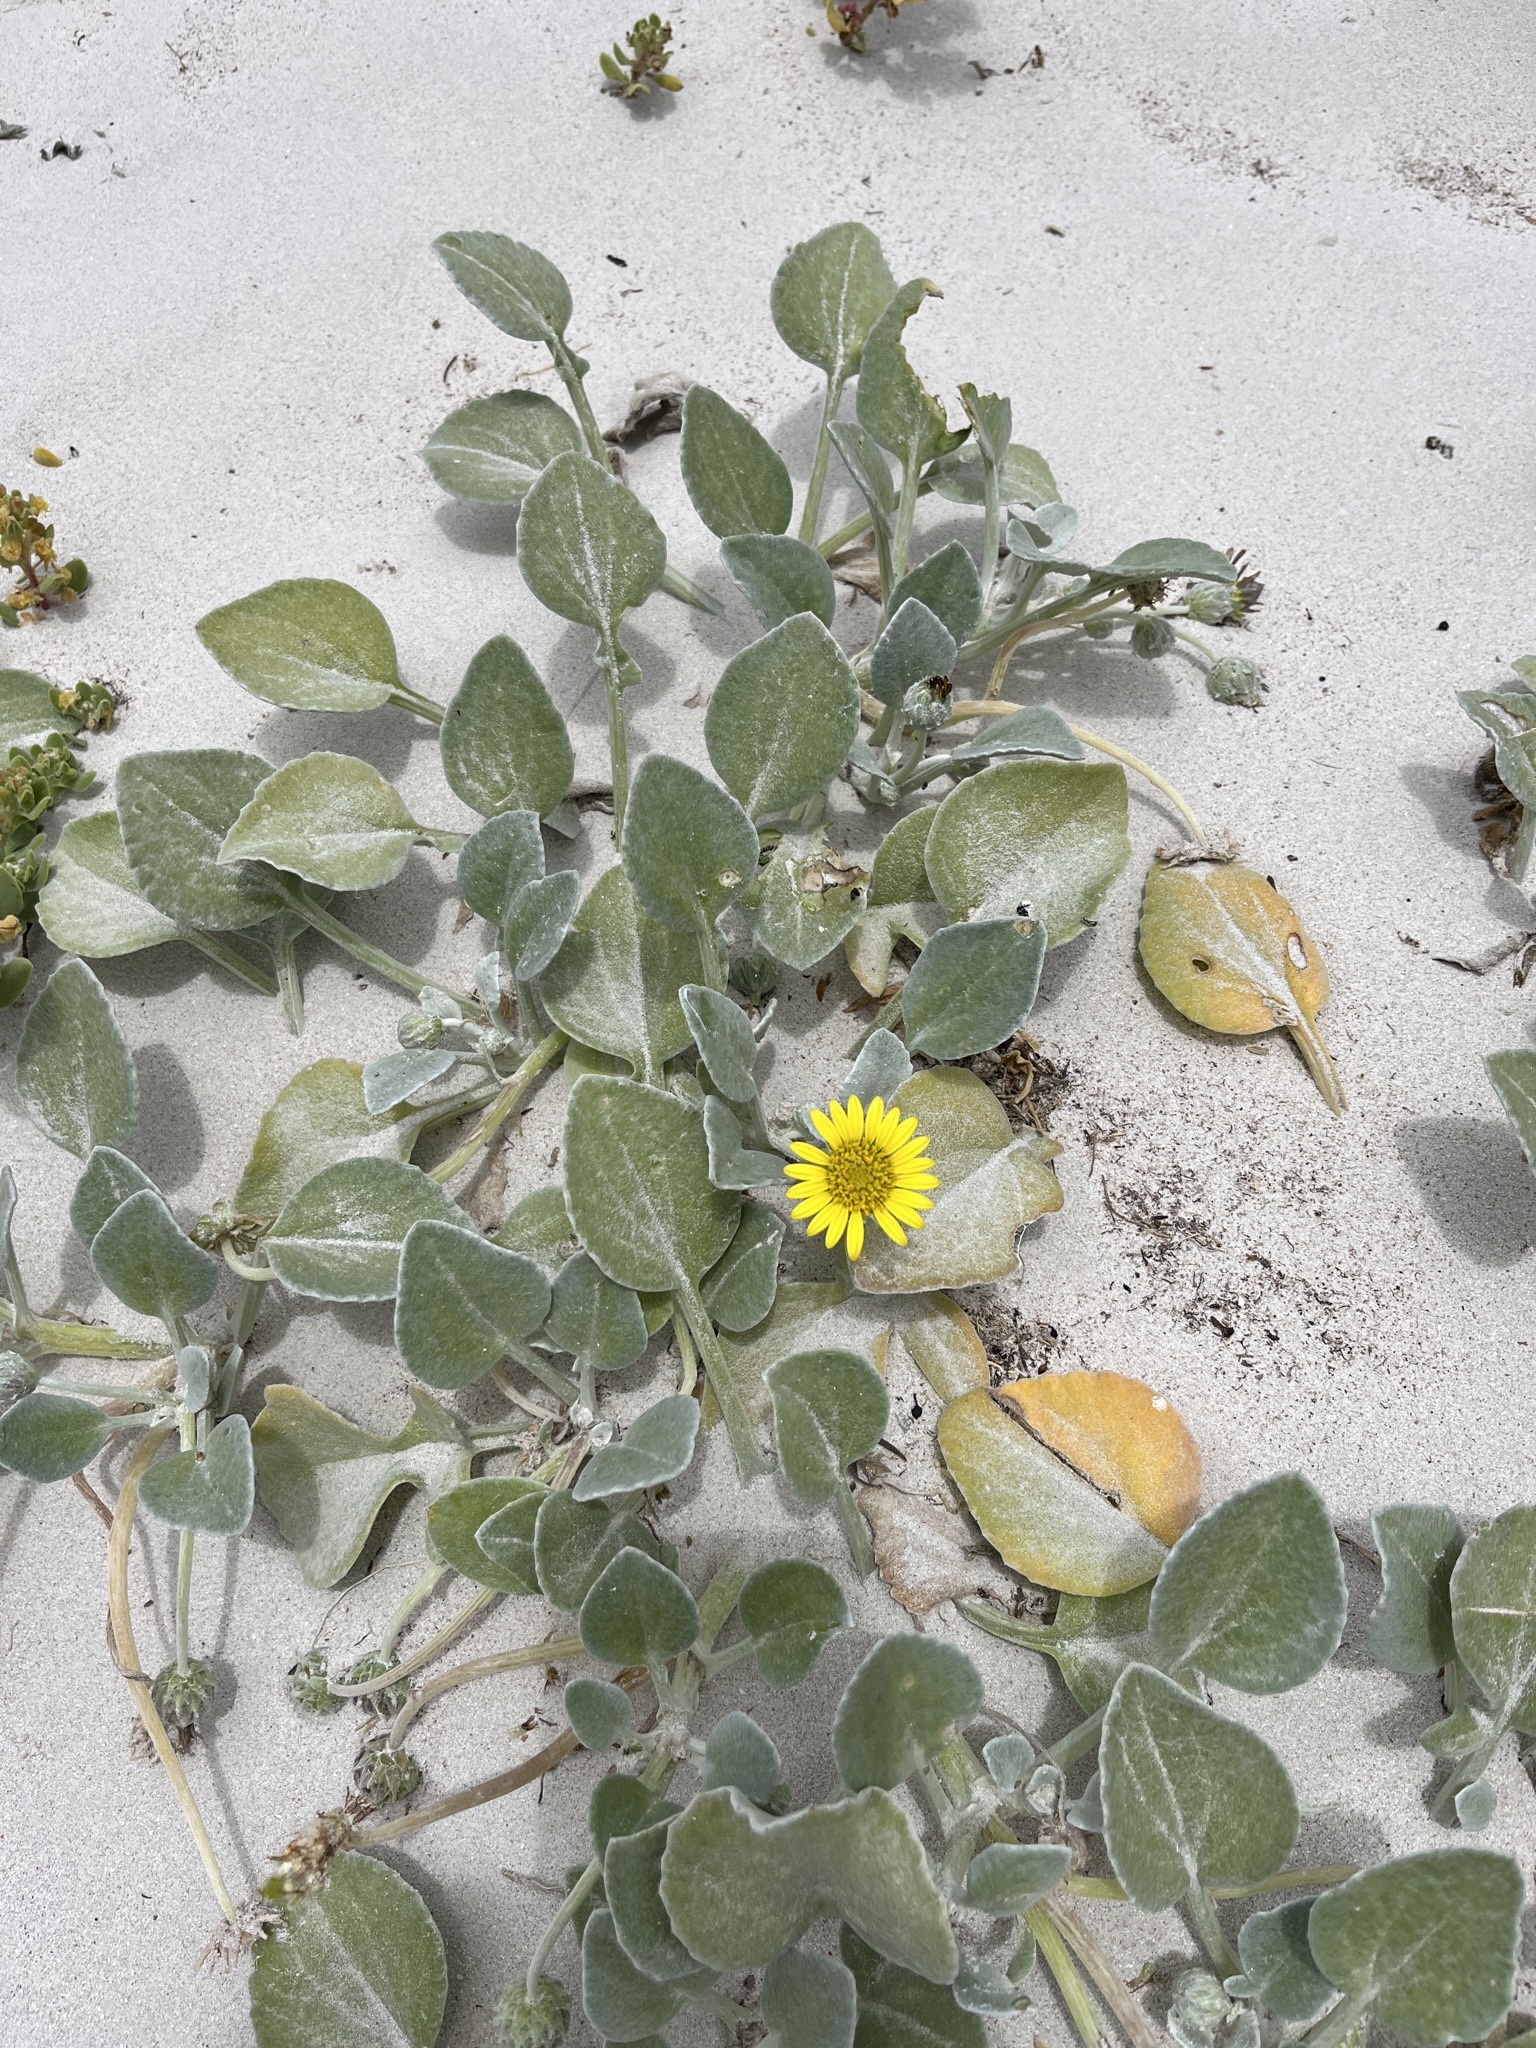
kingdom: Plantae
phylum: Tracheophyta
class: Magnoliopsida
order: Asterales
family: Asteraceae
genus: Arctotheca
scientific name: Arctotheca populifolia
